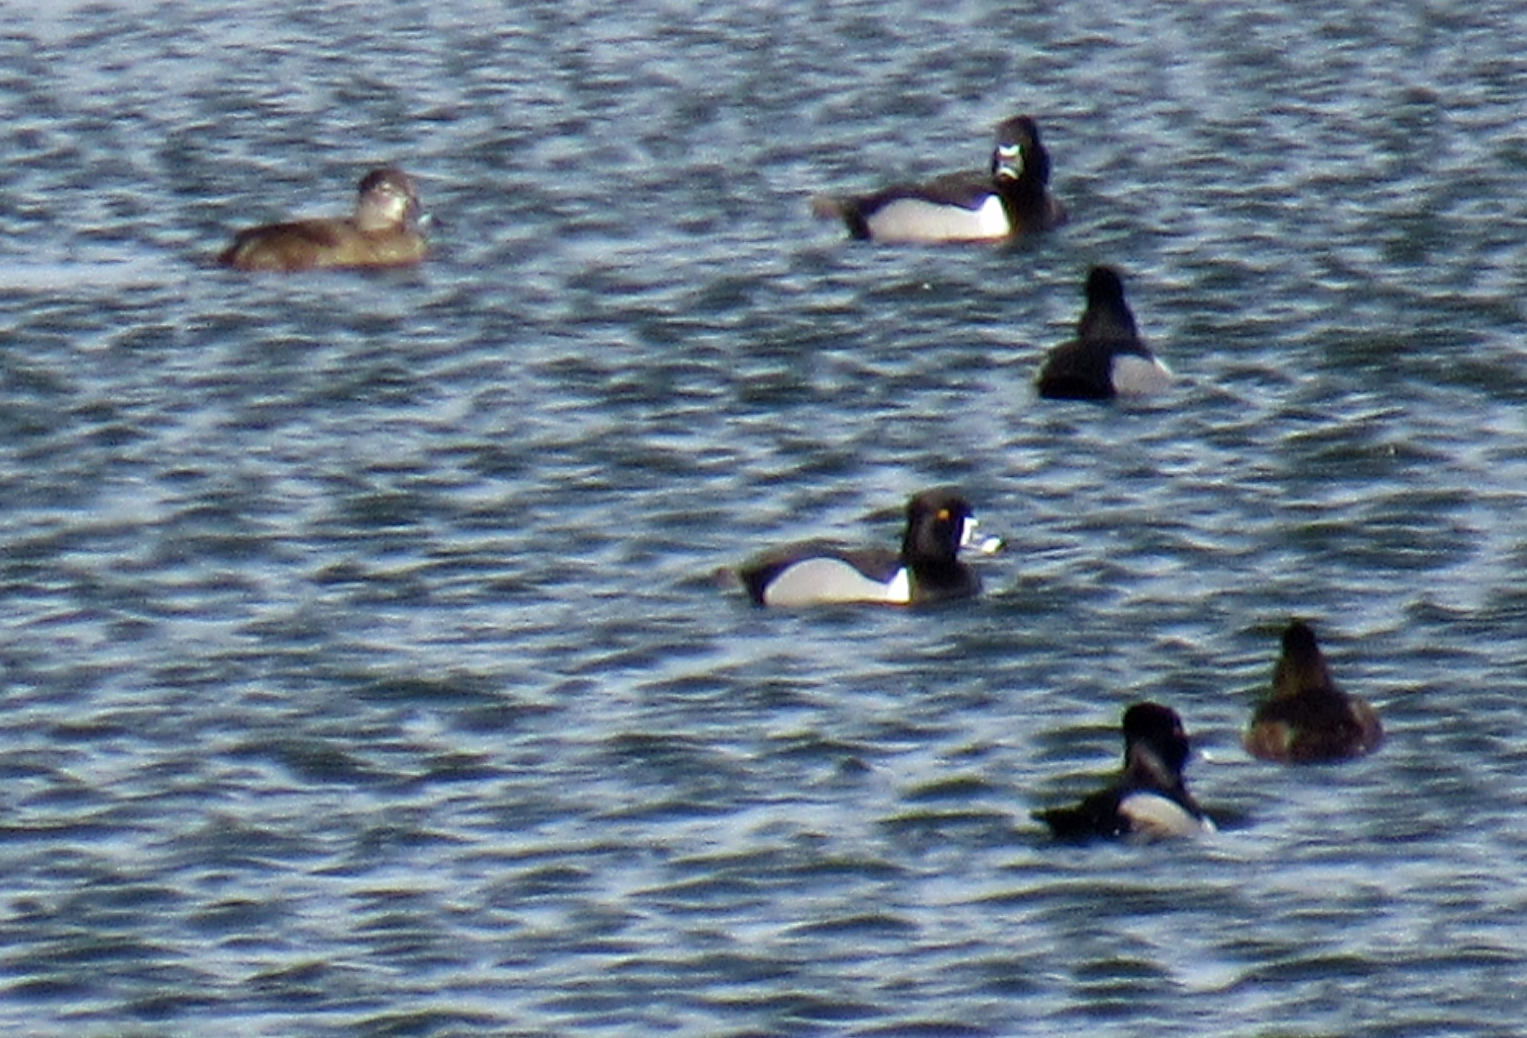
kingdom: Animalia
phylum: Chordata
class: Aves
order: Anseriformes
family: Anatidae
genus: Aythya
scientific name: Aythya collaris
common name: Ring-necked duck
